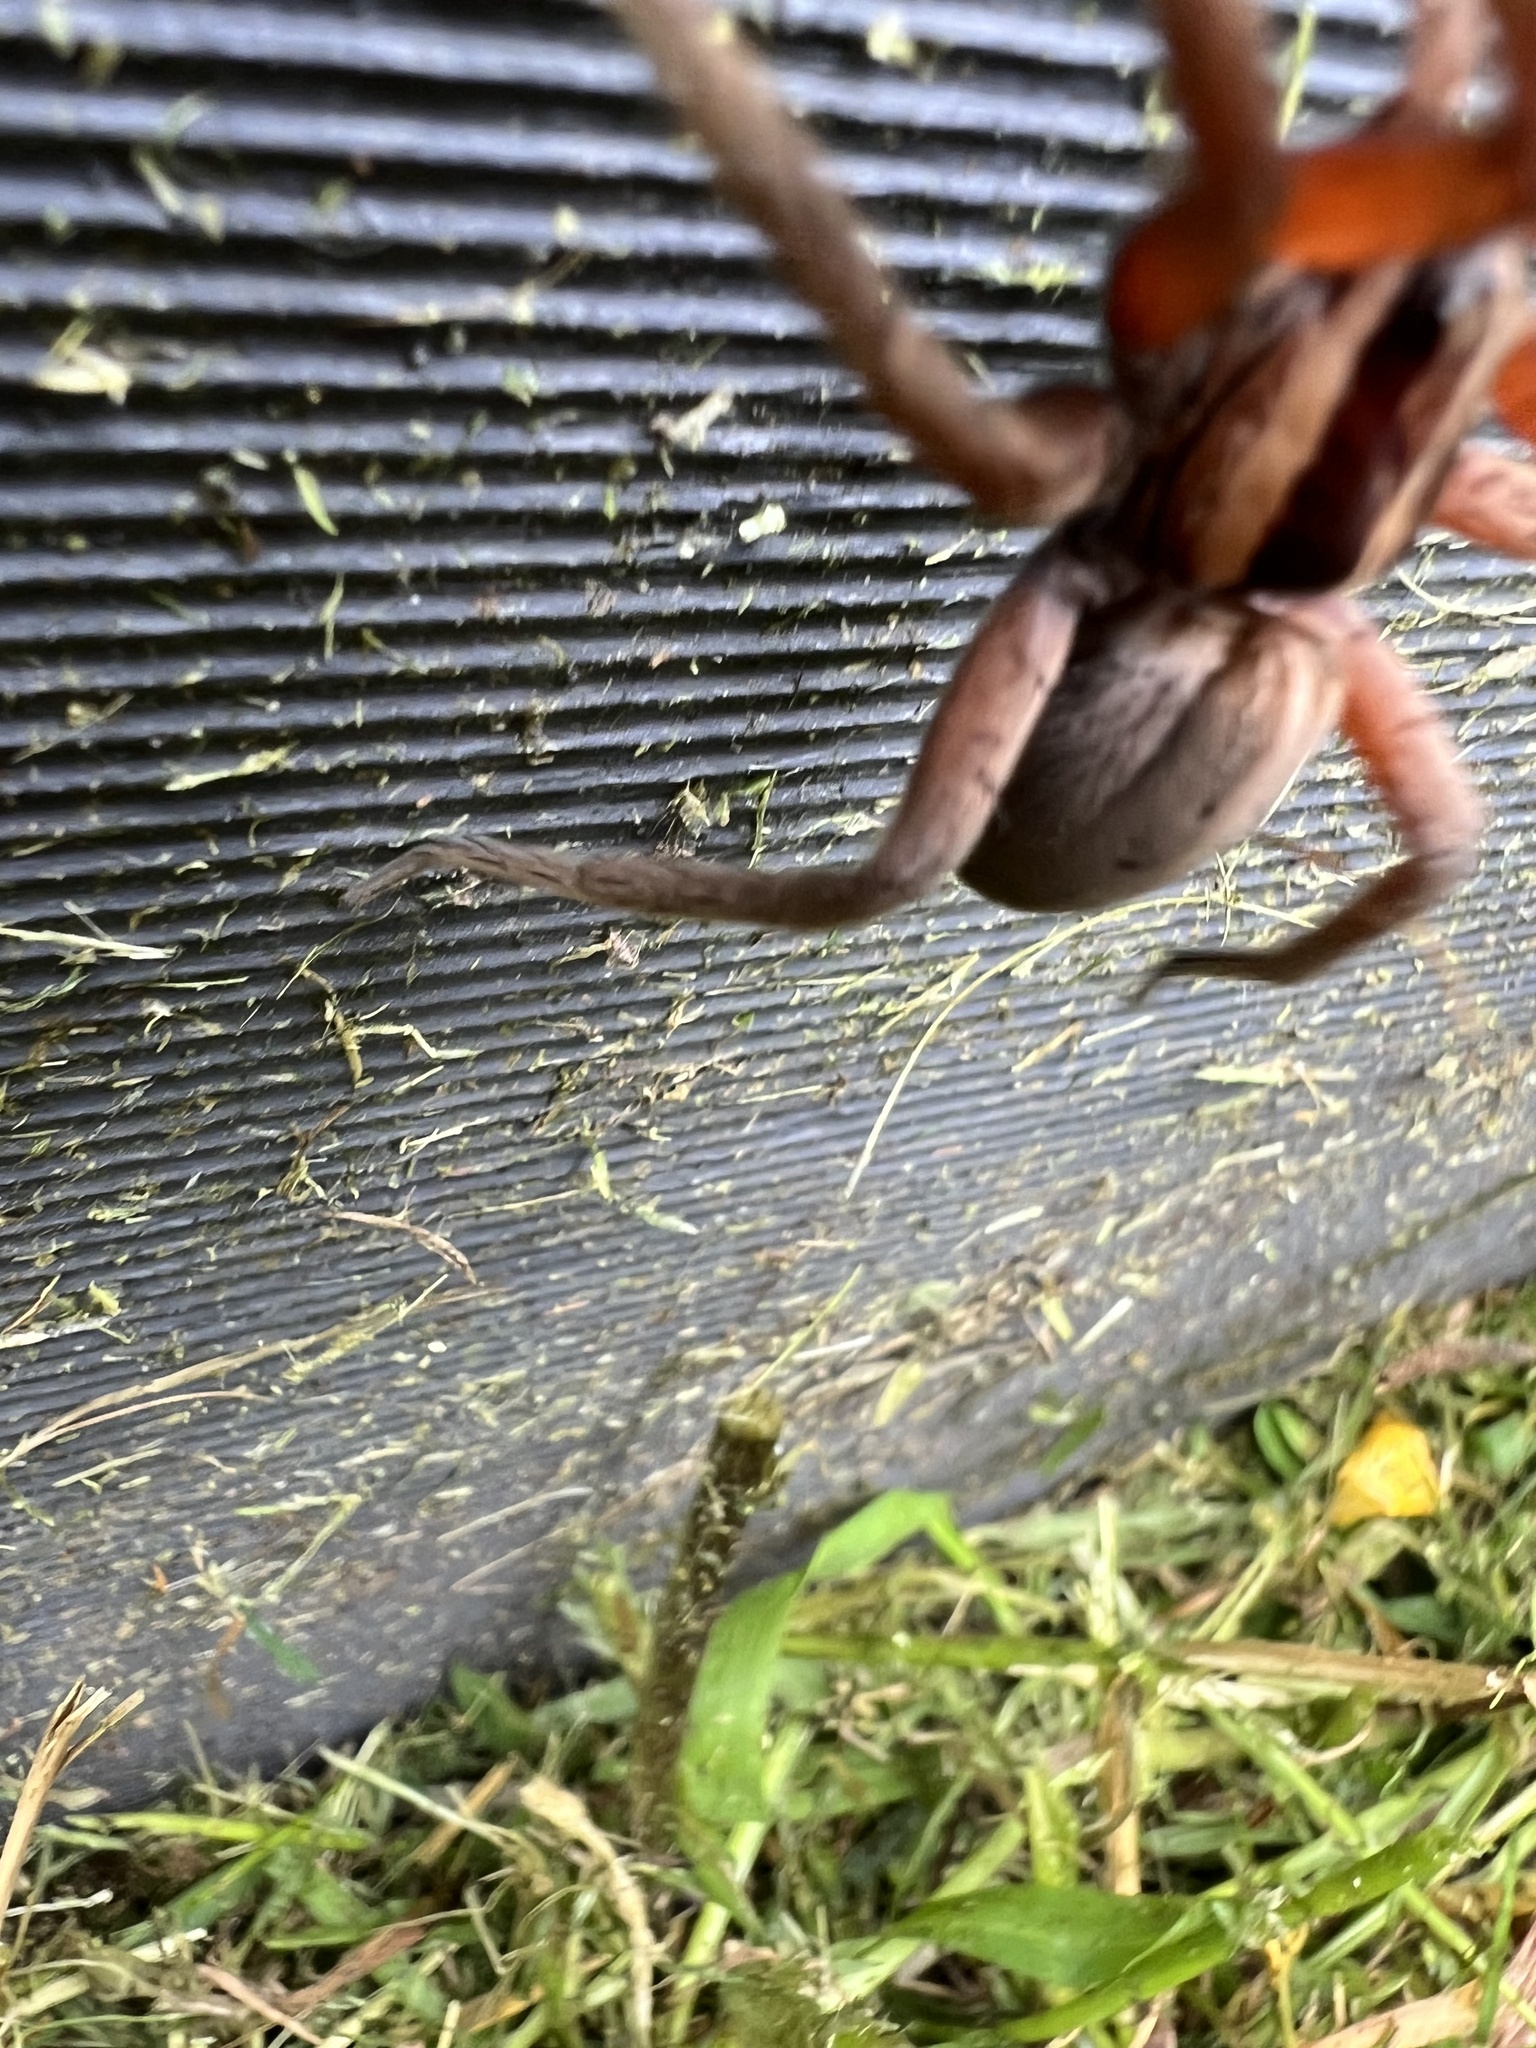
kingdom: Animalia
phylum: Arthropoda
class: Arachnida
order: Araneae
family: Pisauridae
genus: Dolomedes
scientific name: Dolomedes minor
